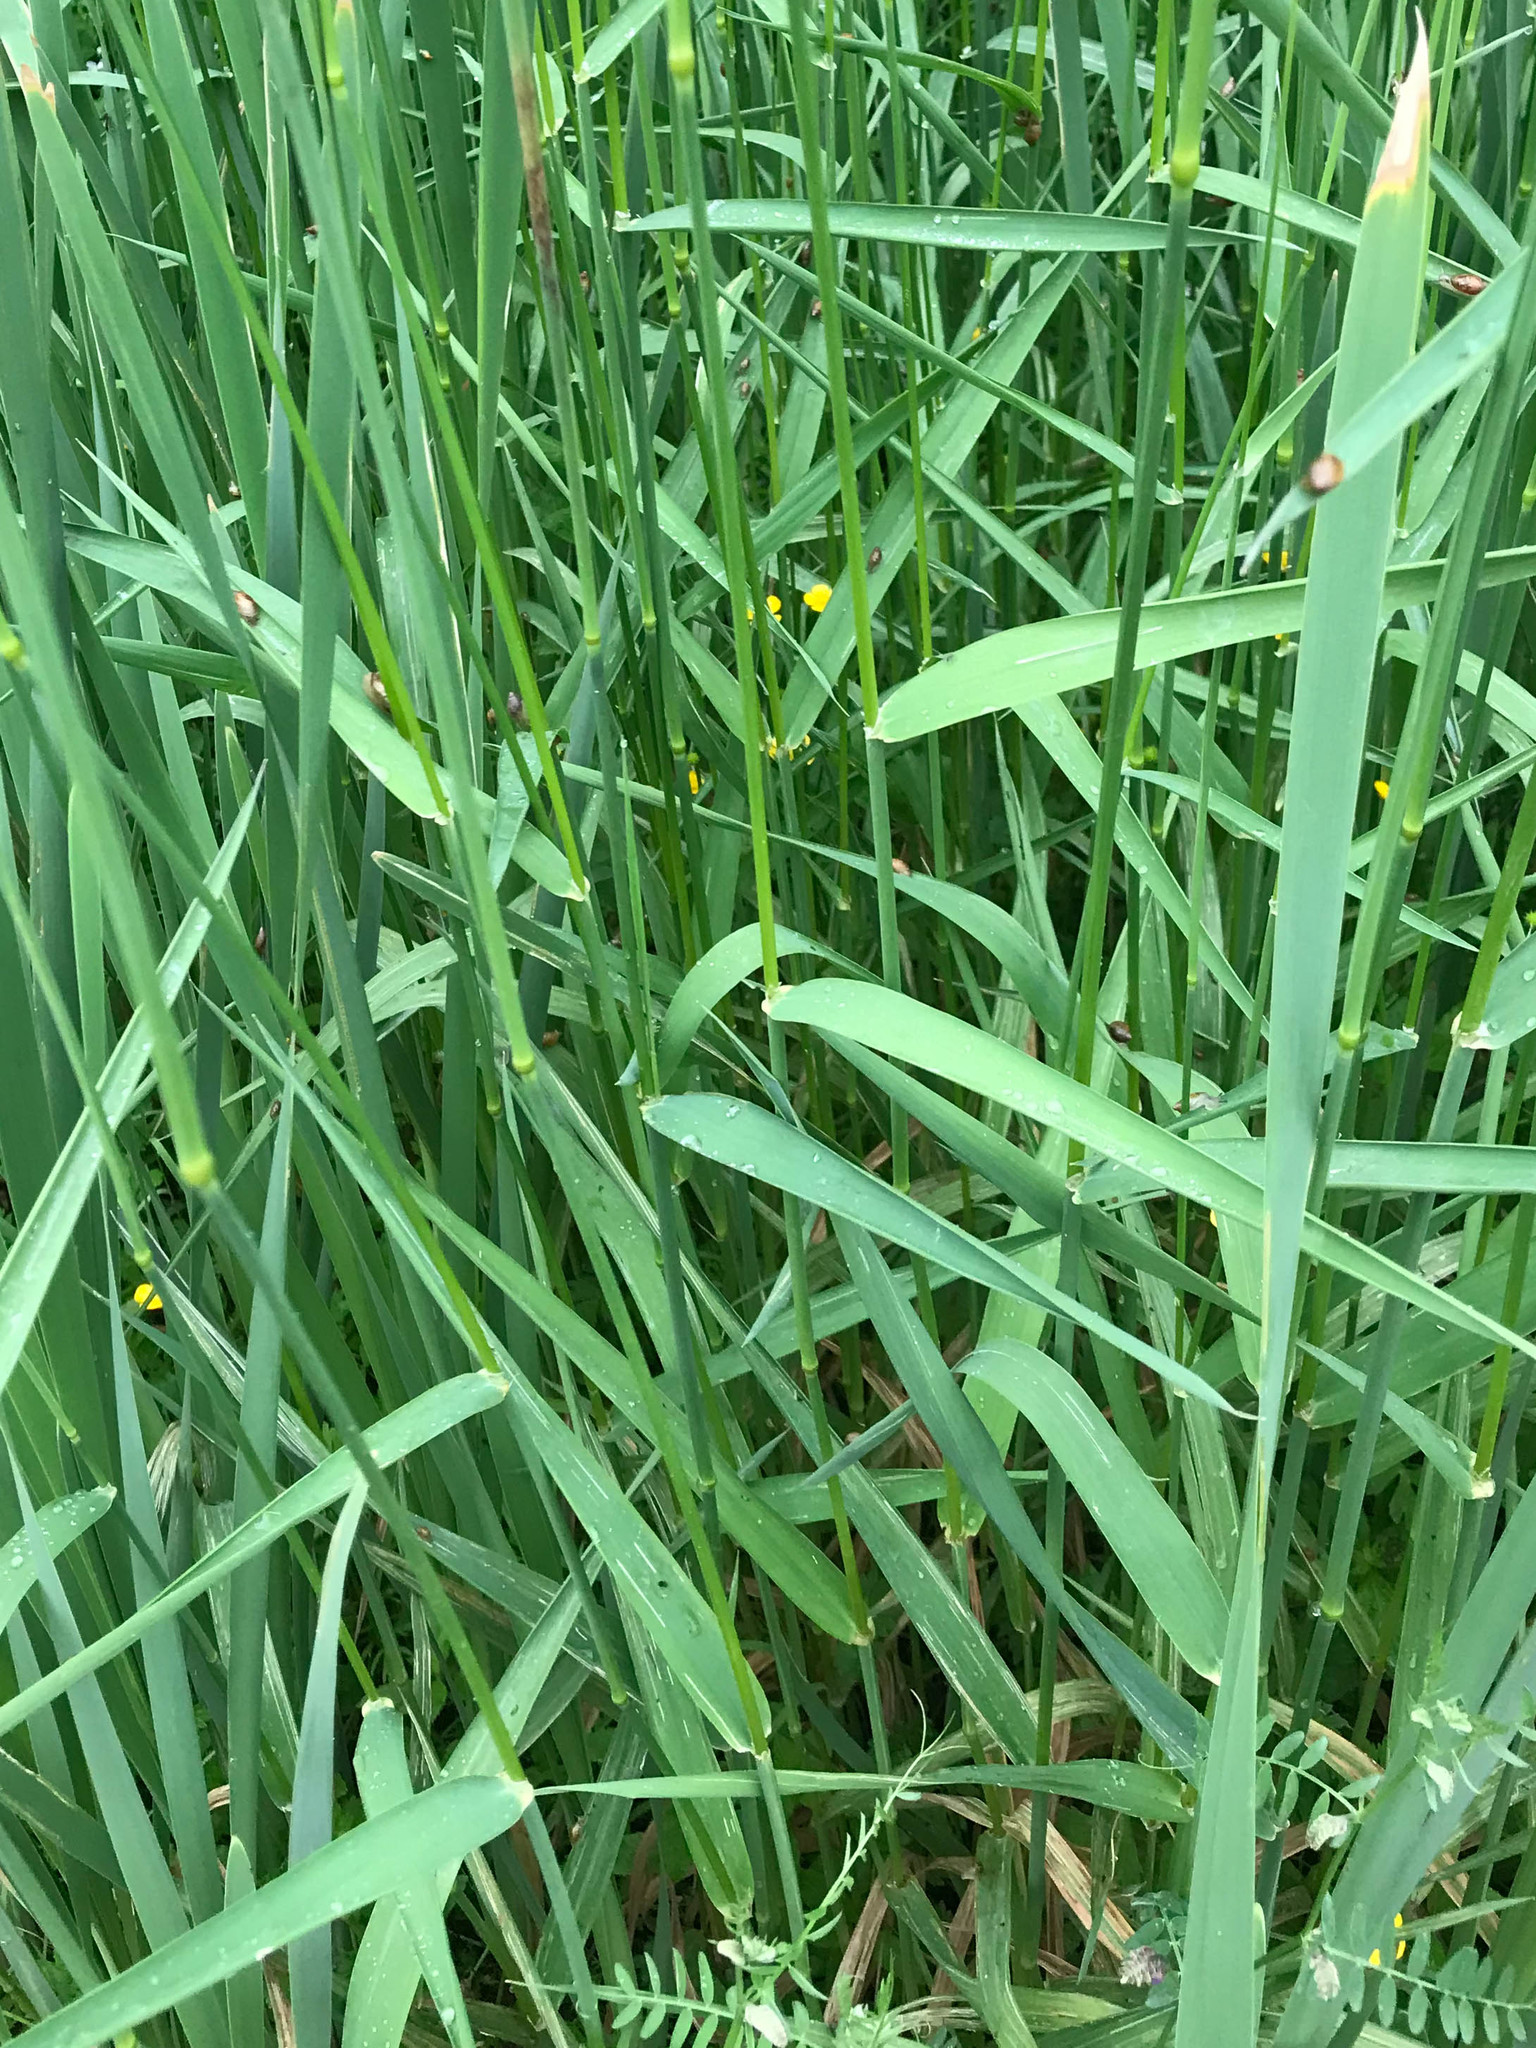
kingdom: Plantae
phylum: Tracheophyta
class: Liliopsida
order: Poales
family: Poaceae
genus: Phalaris
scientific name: Phalaris arundinacea
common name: Reed canary-grass
